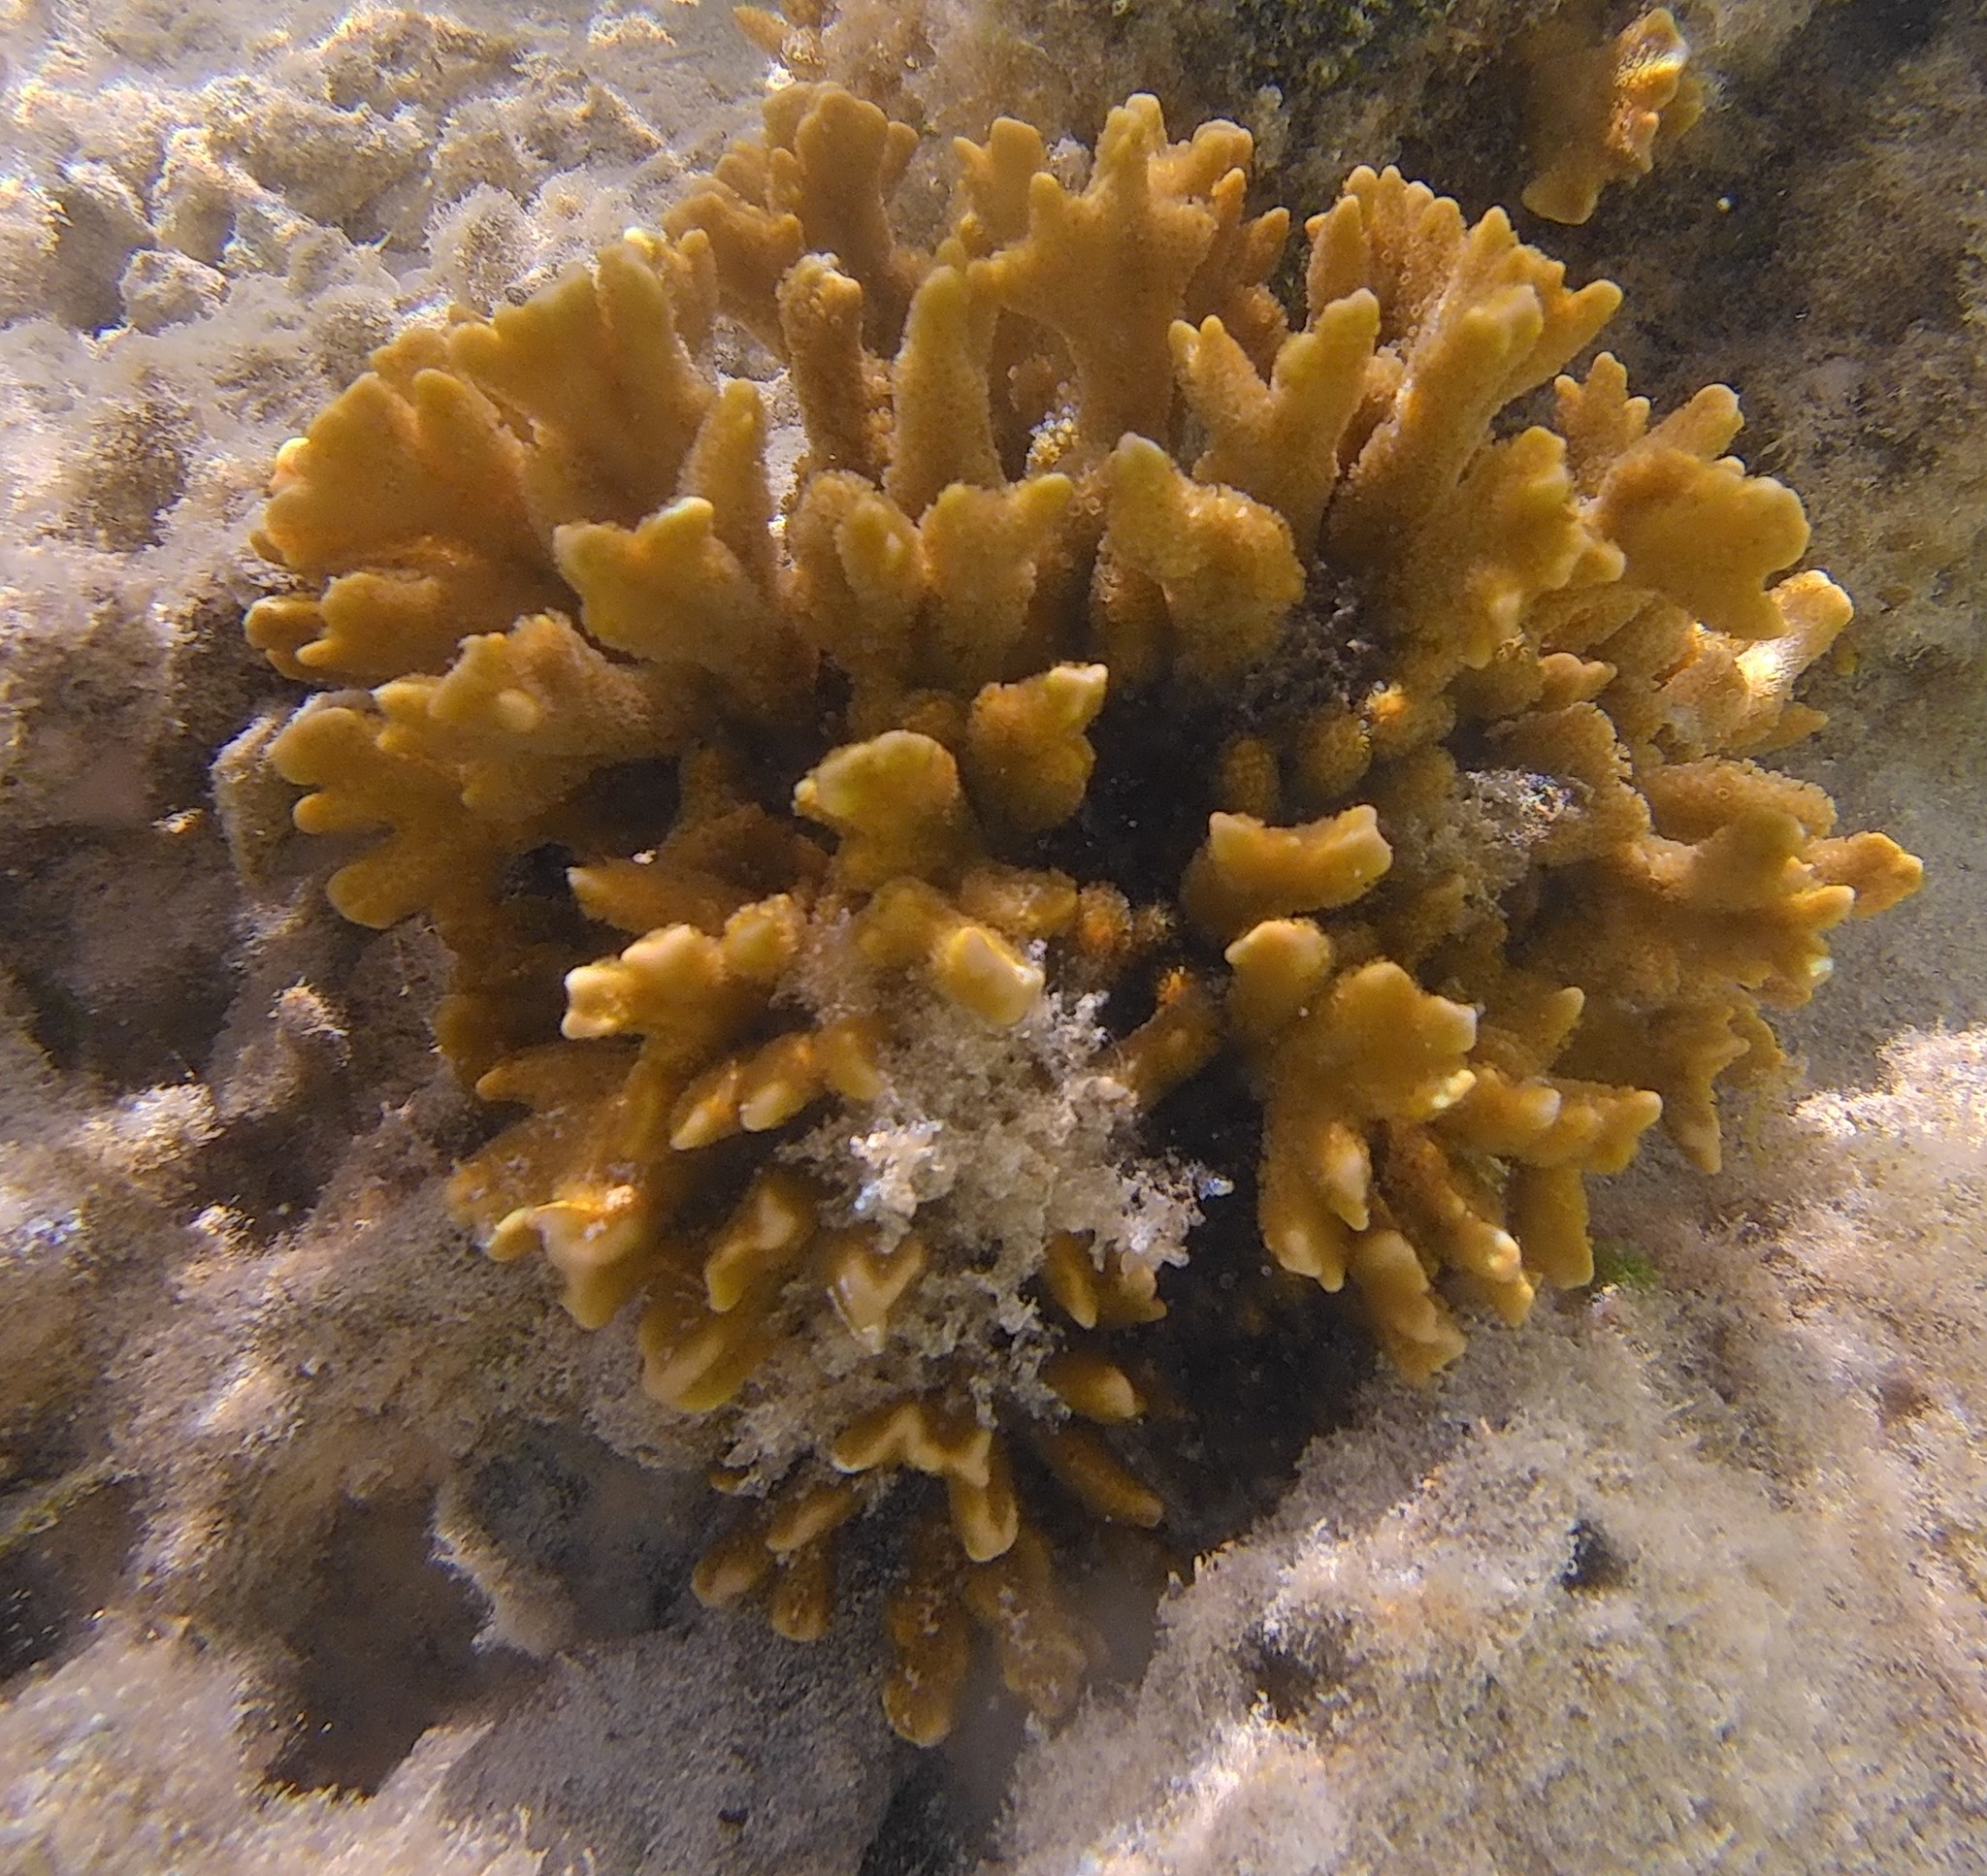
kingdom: Animalia
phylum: Cnidaria
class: Anthozoa
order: Scleractinia
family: Acroporidae
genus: Montipora
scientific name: Montipora digitata
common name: Pore coral
